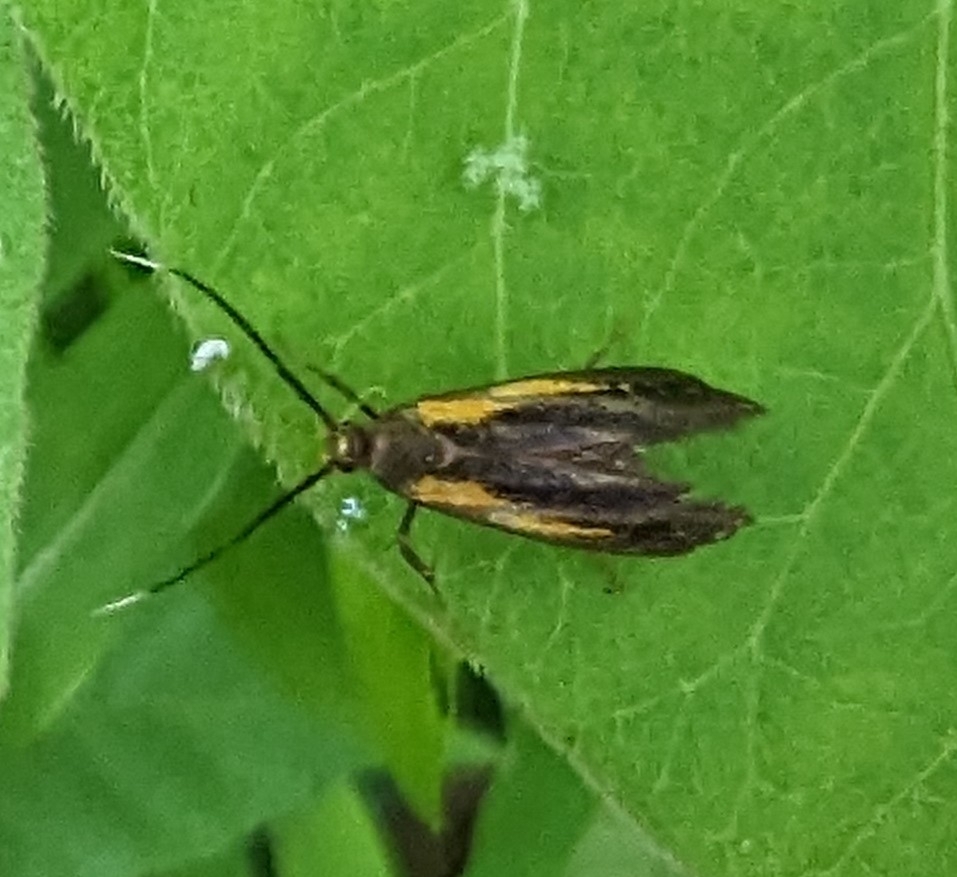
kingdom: Animalia
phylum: Arthropoda
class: Insecta
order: Lepidoptera
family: Oecophoridae
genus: Mathildana
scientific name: Mathildana newmanella
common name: Newman's mathildana moth
